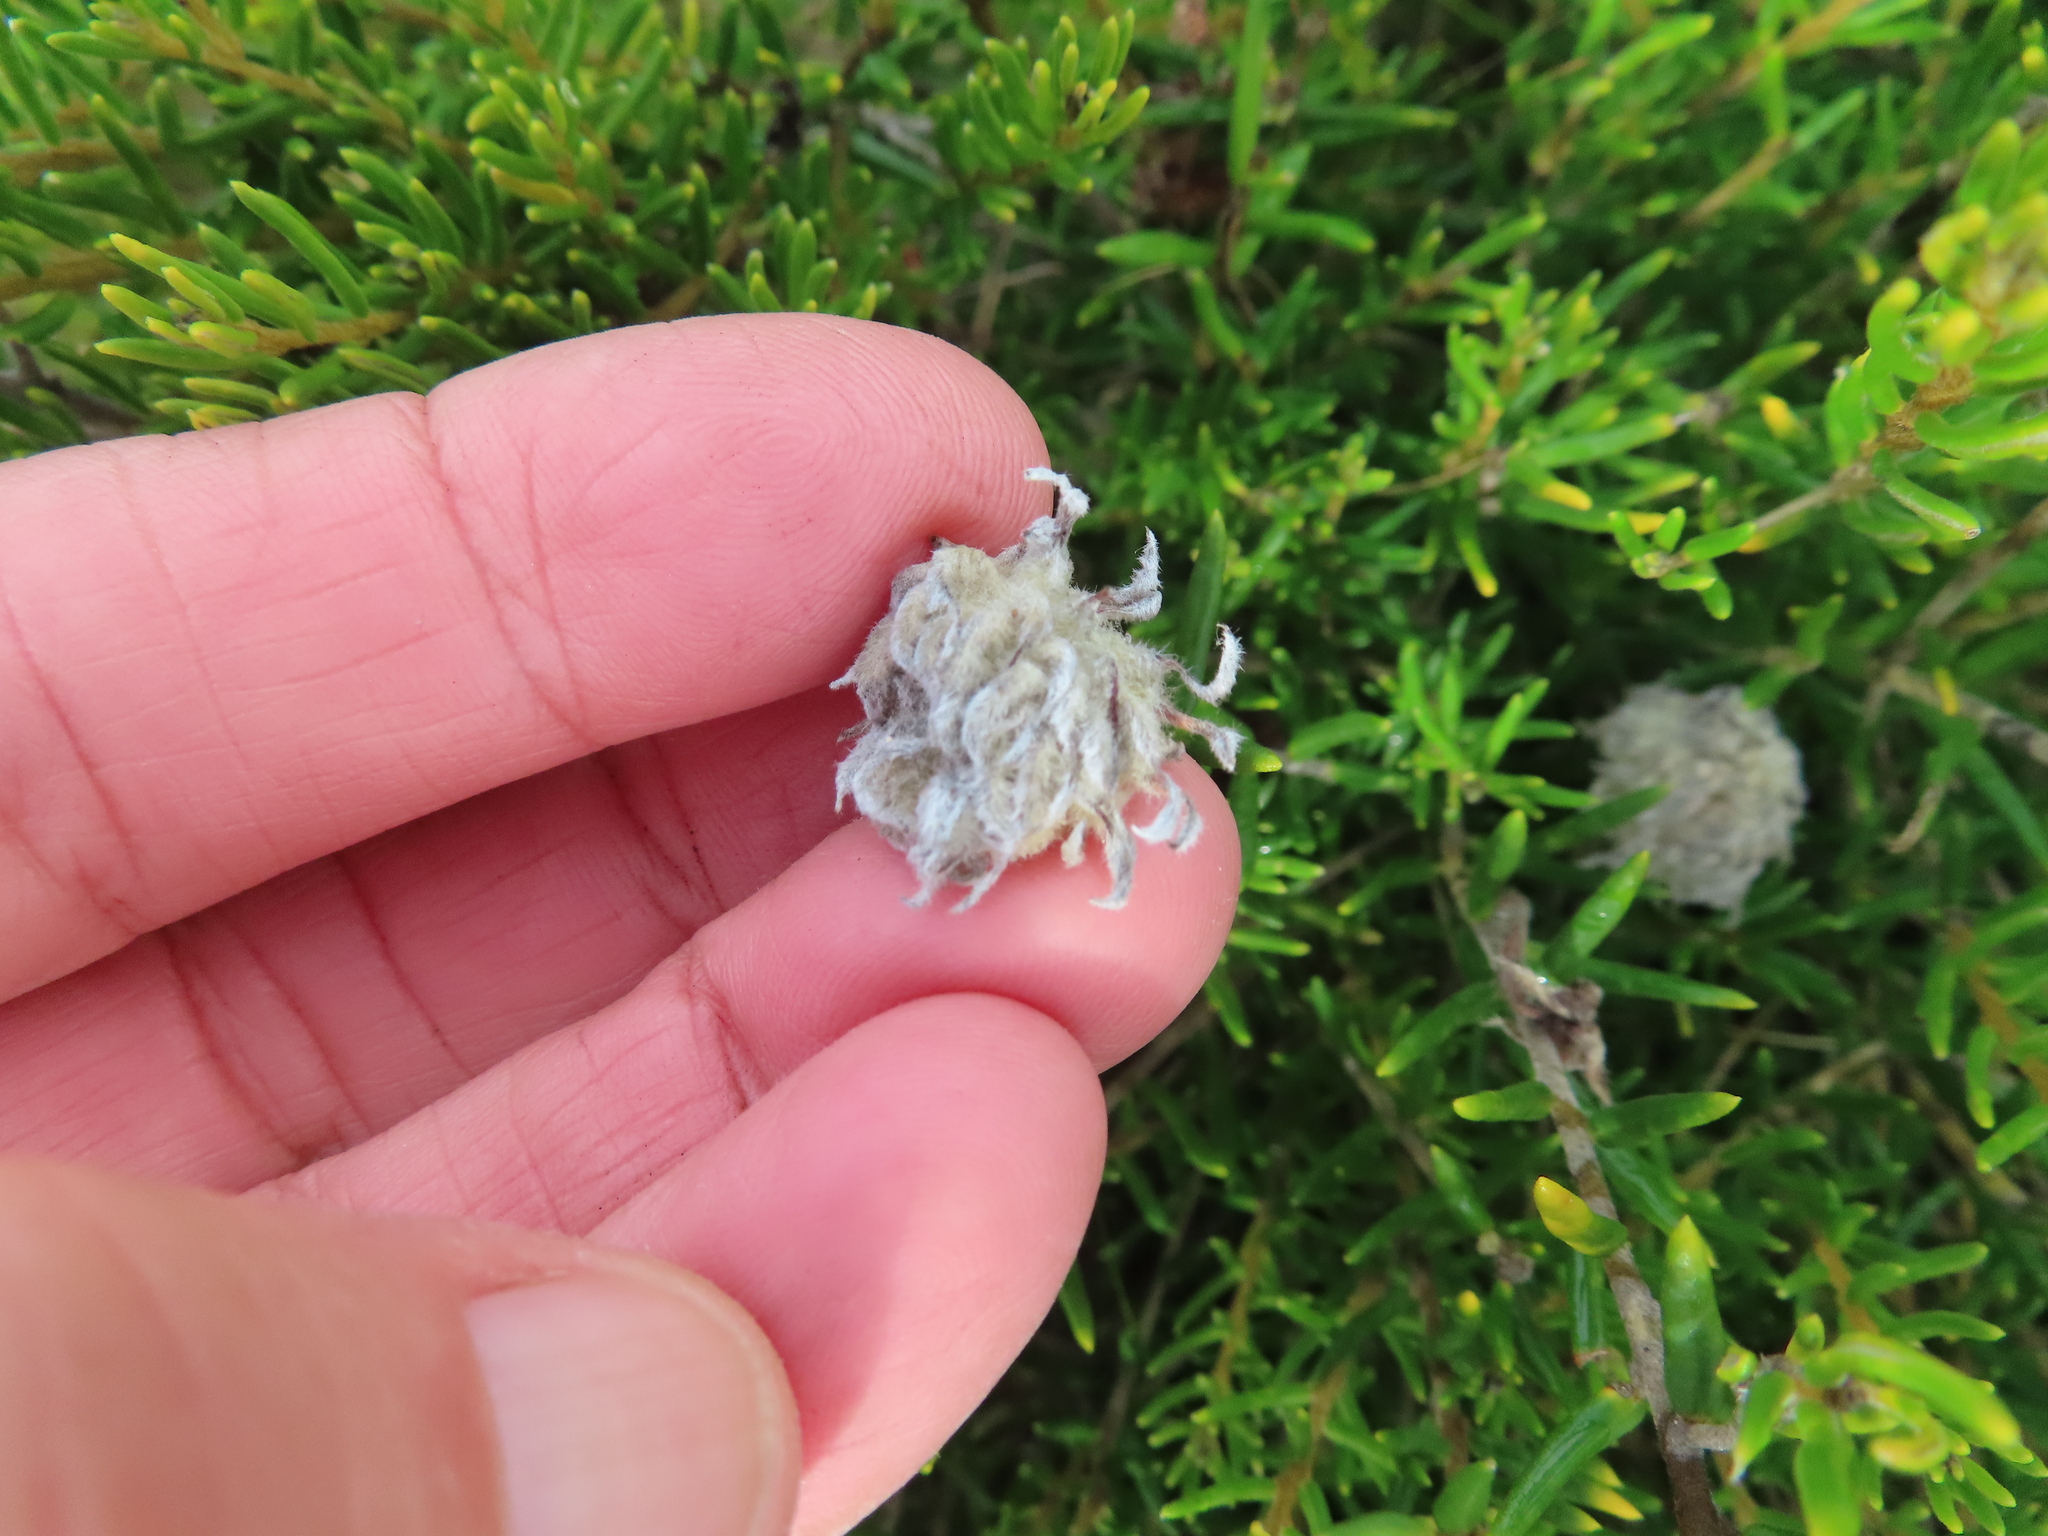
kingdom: Plantae
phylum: Tracheophyta
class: Magnoliopsida
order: Rosales
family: Rhamnaceae
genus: Trichocephalus
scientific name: Trichocephalus stipularis
